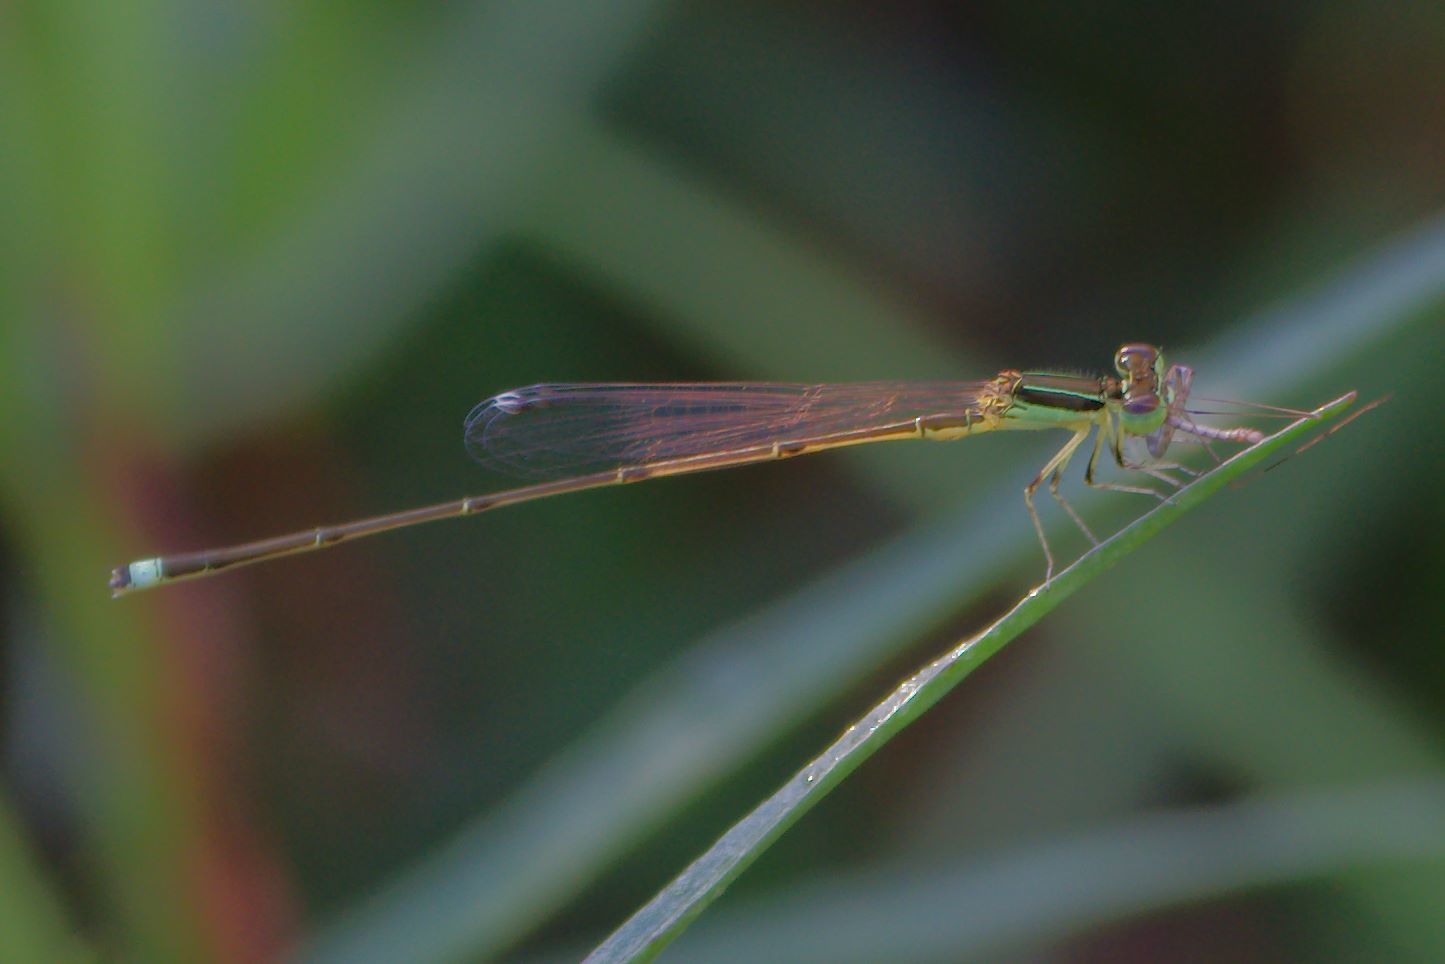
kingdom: Animalia
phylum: Arthropoda
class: Insecta
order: Odonata
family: Coenagrionidae
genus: Ischnura
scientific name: Ischnura prognata
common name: Furtive forktail
